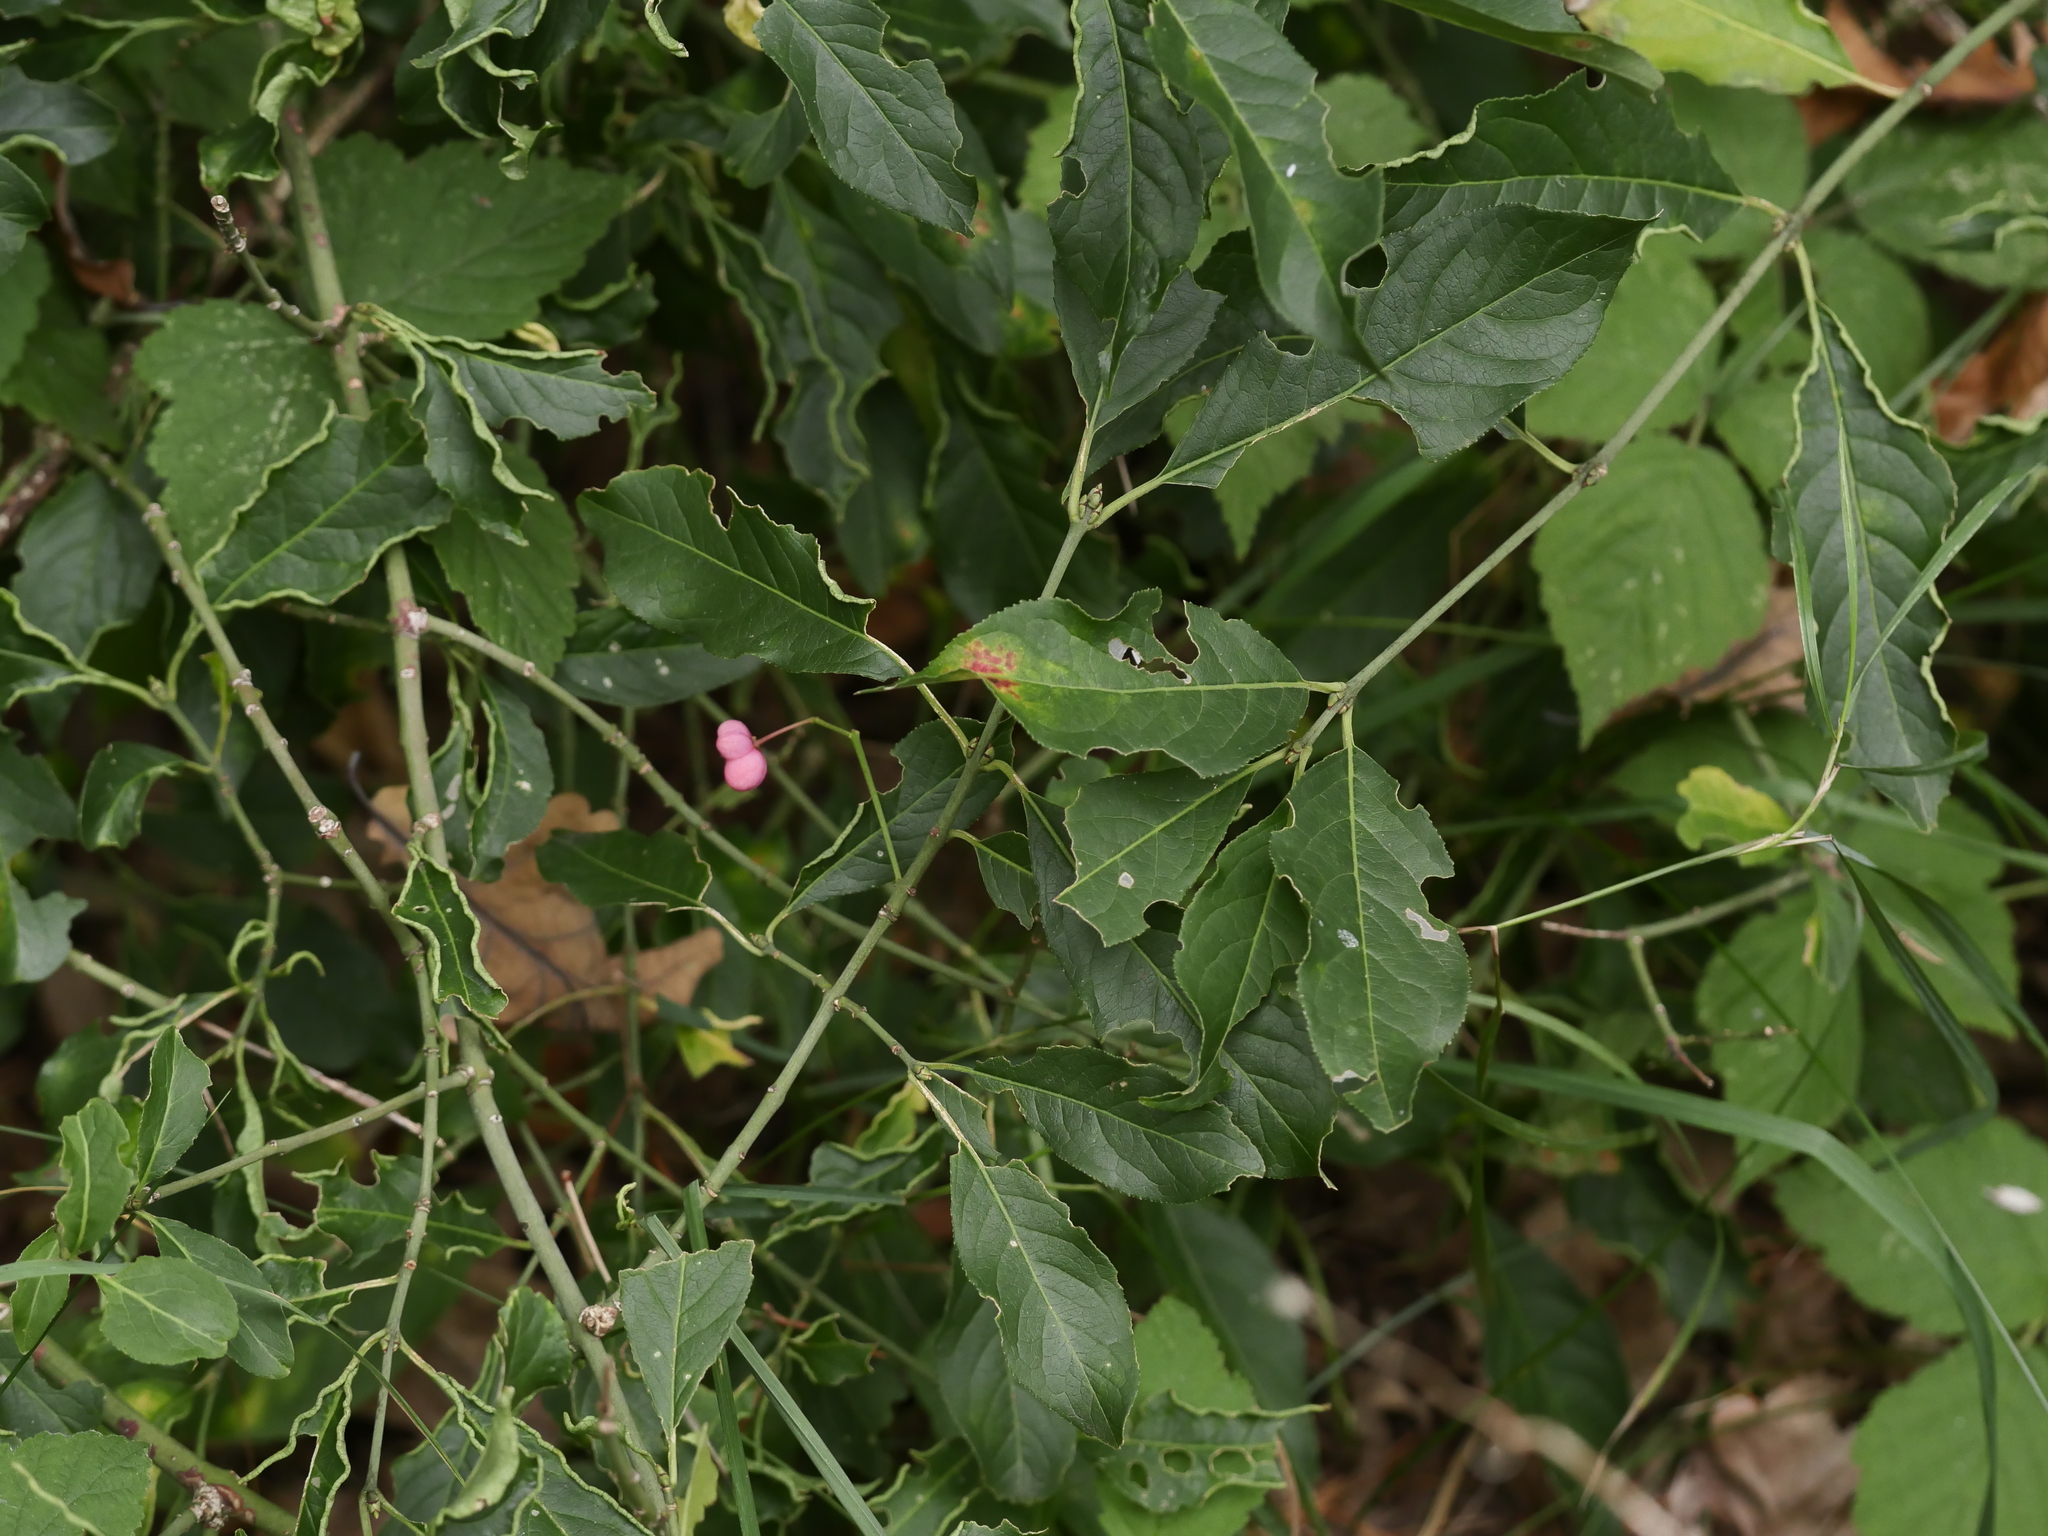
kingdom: Plantae
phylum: Tracheophyta
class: Magnoliopsida
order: Celastrales
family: Celastraceae
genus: Euonymus
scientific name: Euonymus europaeus
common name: Spindle
